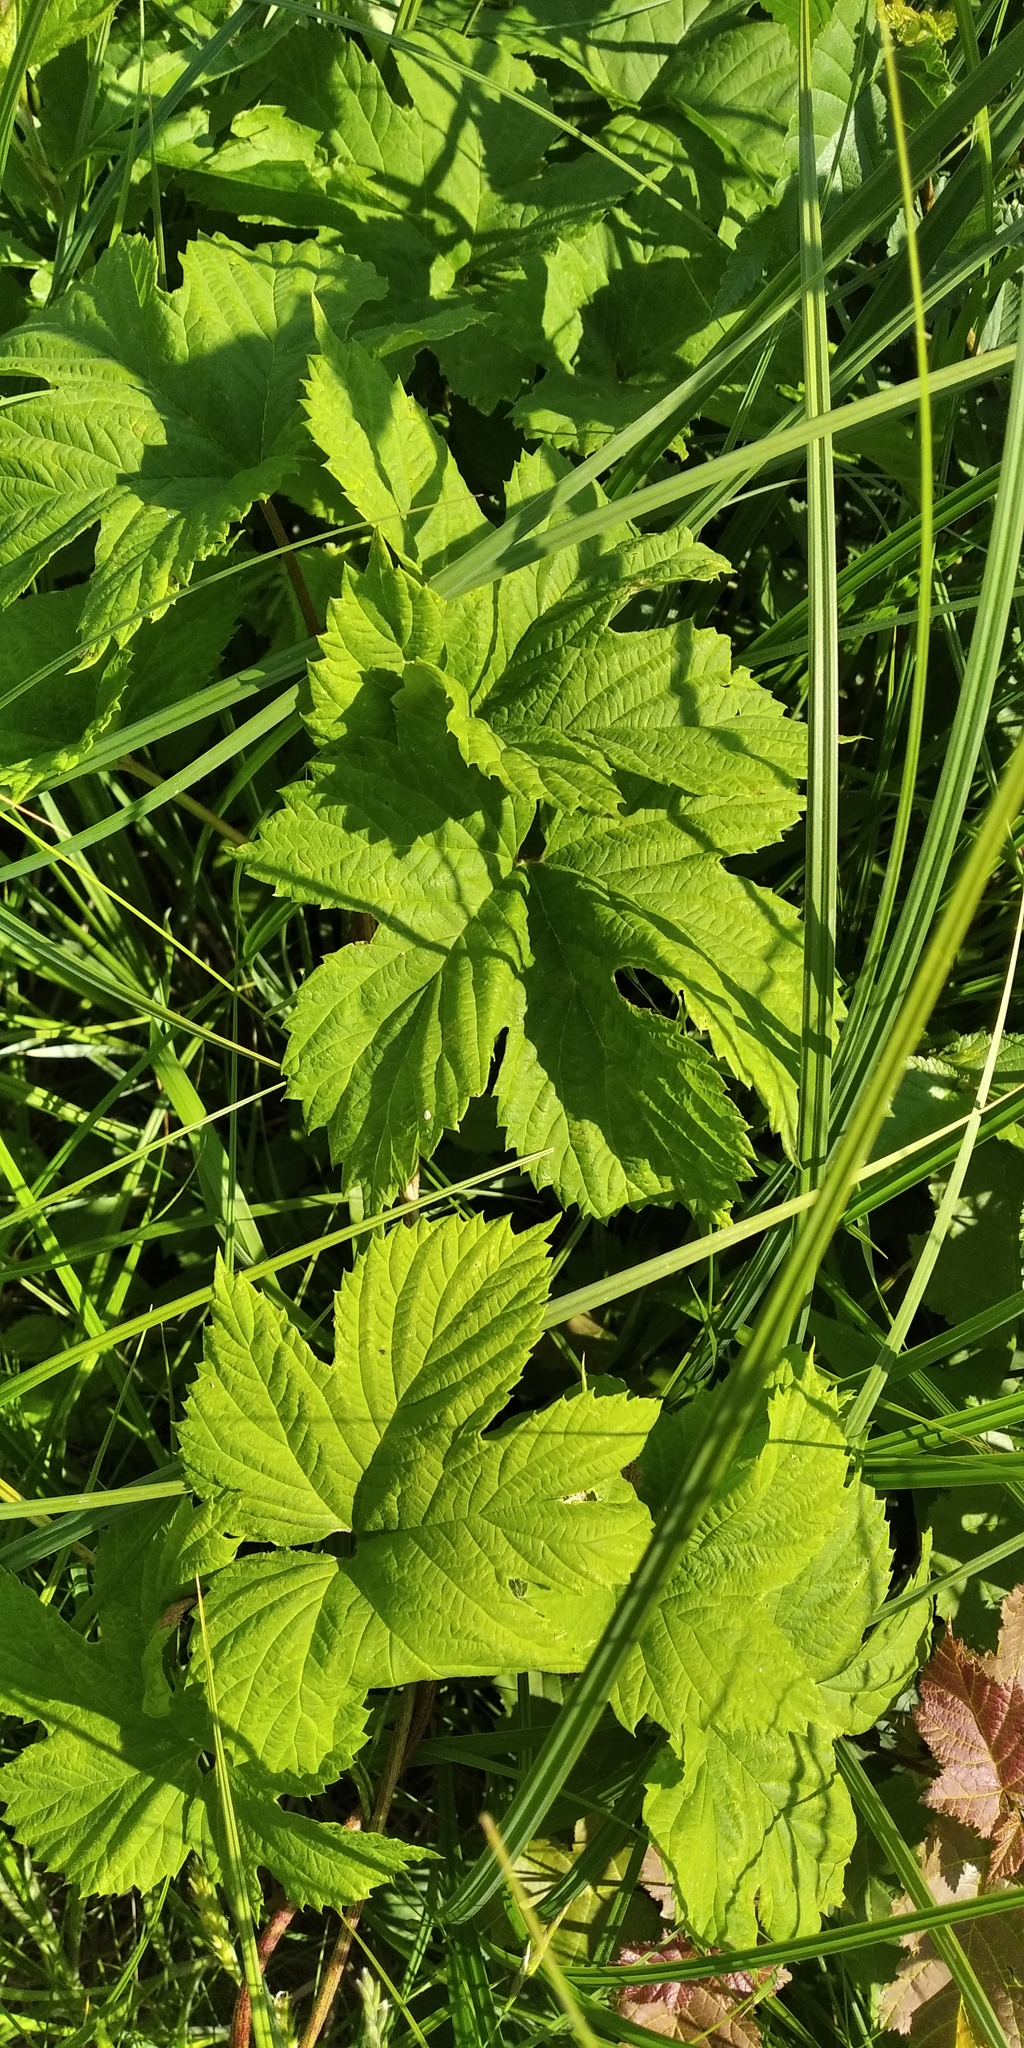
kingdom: Plantae
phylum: Tracheophyta
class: Magnoliopsida
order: Rosales
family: Cannabaceae
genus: Humulus
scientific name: Humulus lupulus
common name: Hop
